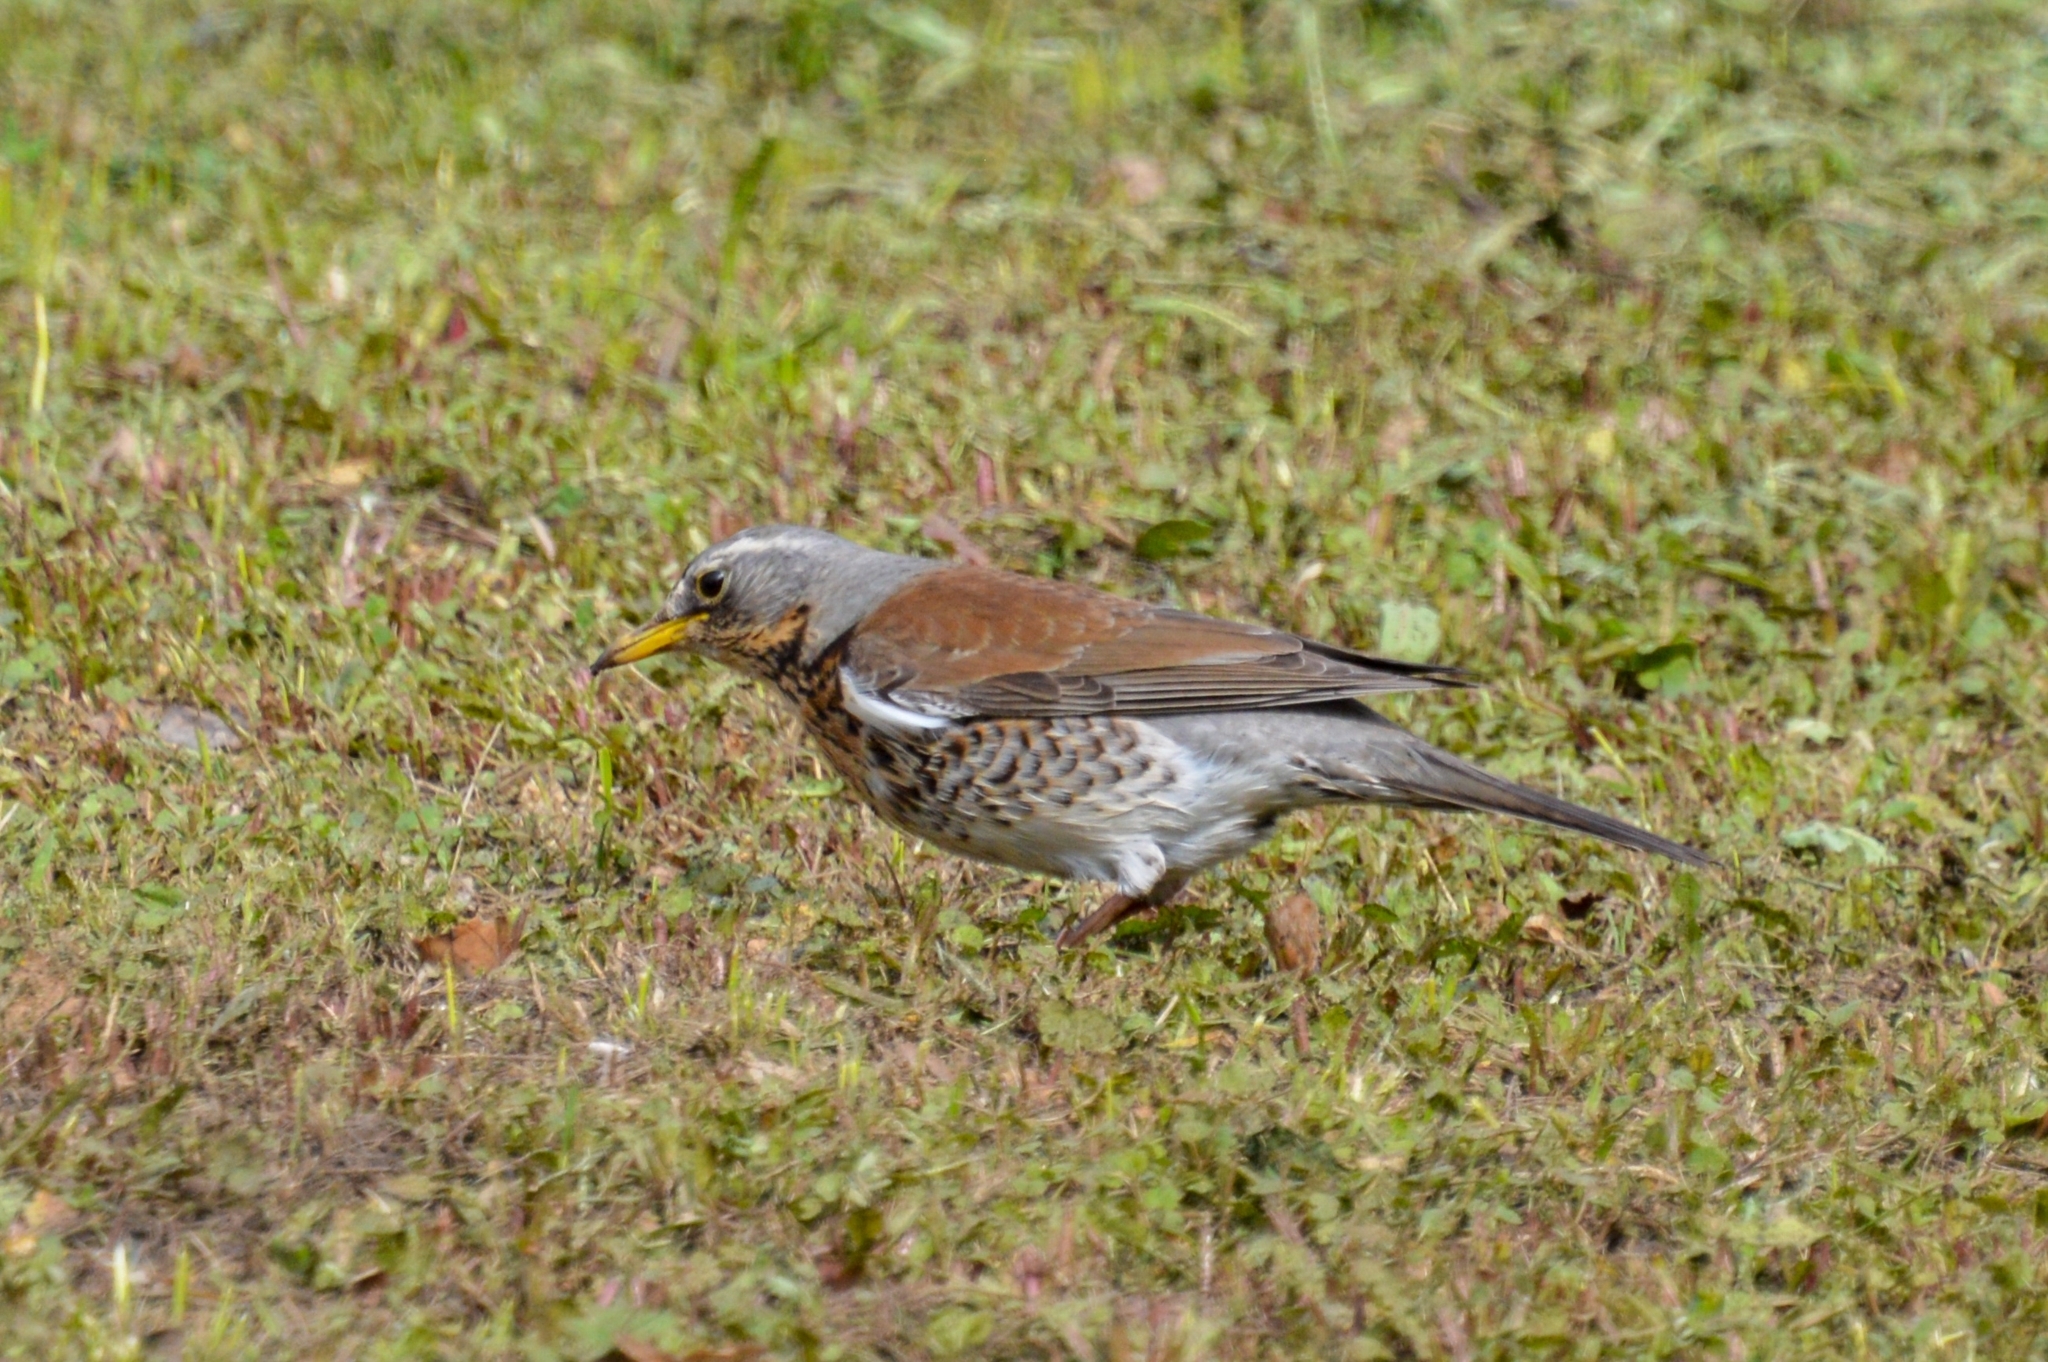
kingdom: Animalia
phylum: Chordata
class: Aves
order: Passeriformes
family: Turdidae
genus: Turdus
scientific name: Turdus pilaris
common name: Fieldfare
